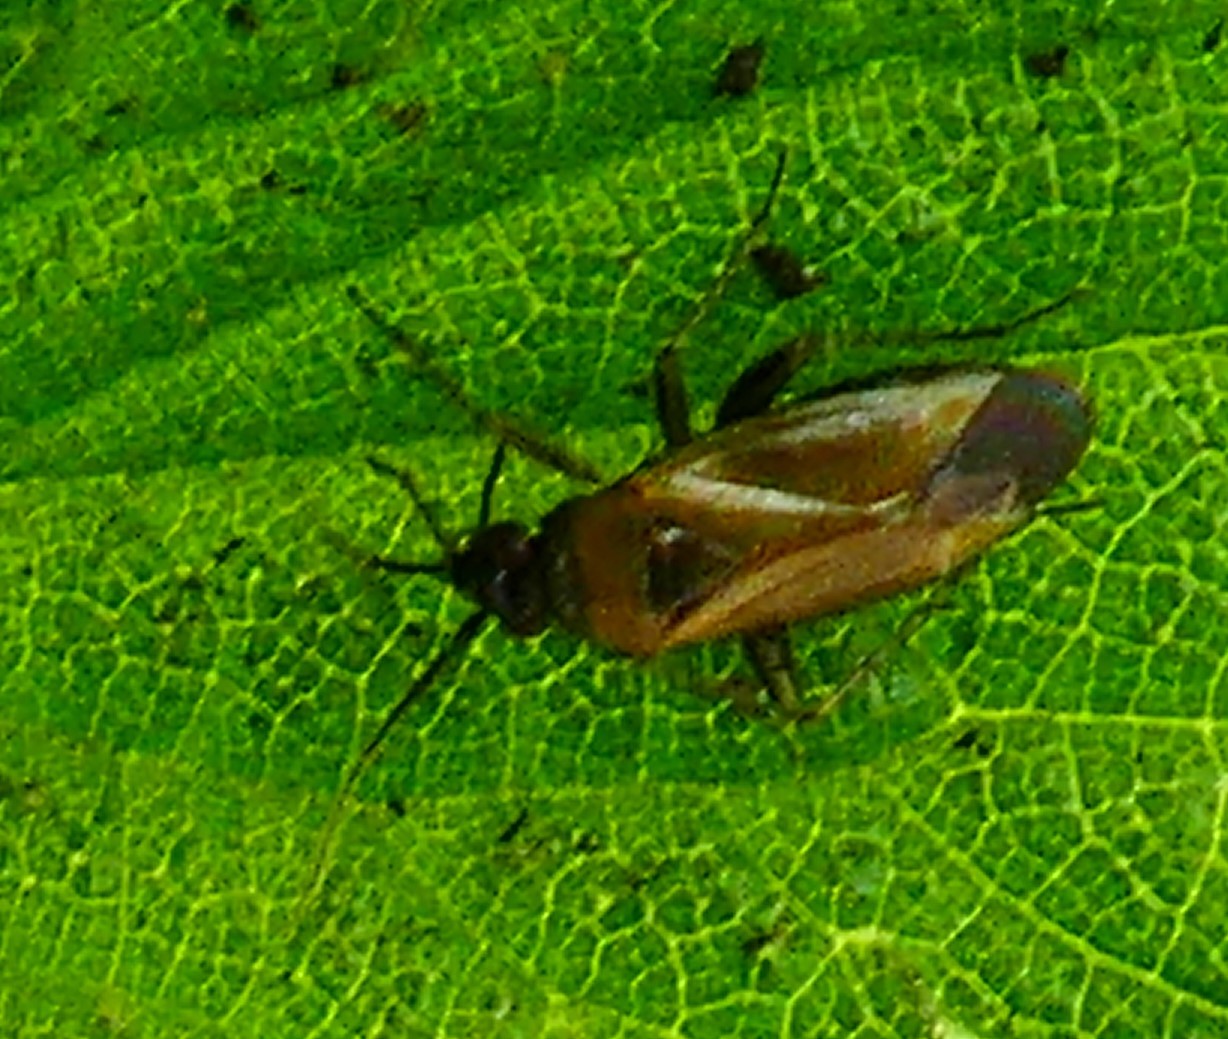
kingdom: Animalia
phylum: Arthropoda
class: Insecta
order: Hemiptera
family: Miridae
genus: Plagiognathus
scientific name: Plagiognathus arbustorum
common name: Plant bug
